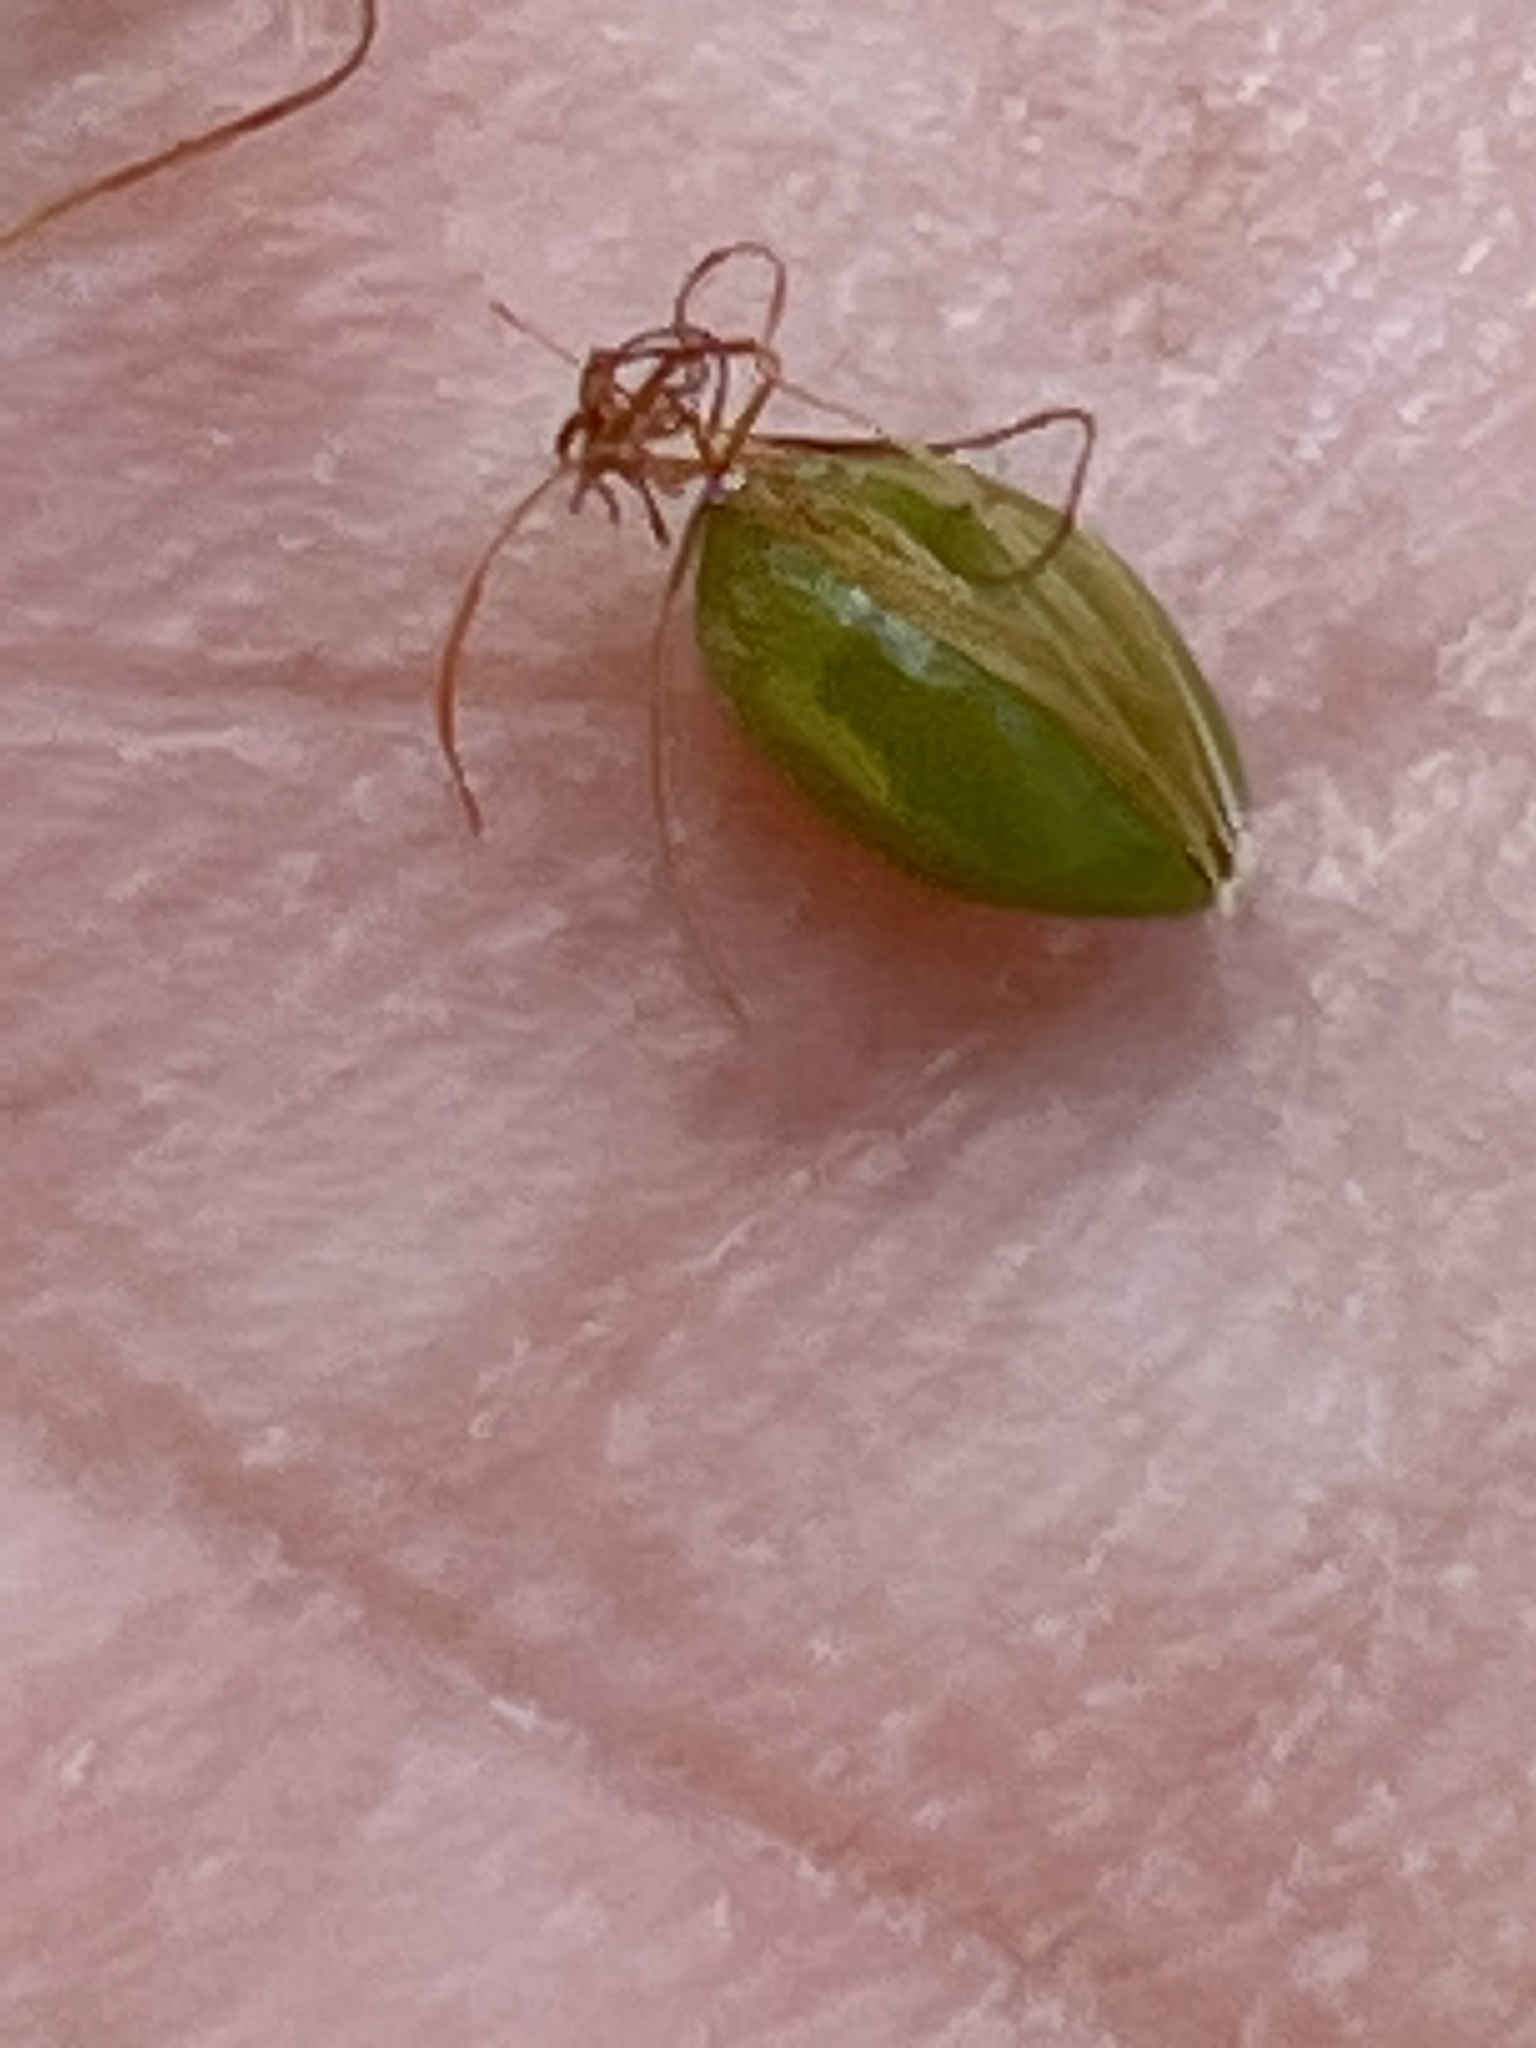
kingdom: Plantae
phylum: Tracheophyta
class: Liliopsida
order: Poales
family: Cyperaceae
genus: Rhynchospora
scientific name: Rhynchospora megalocarpa
